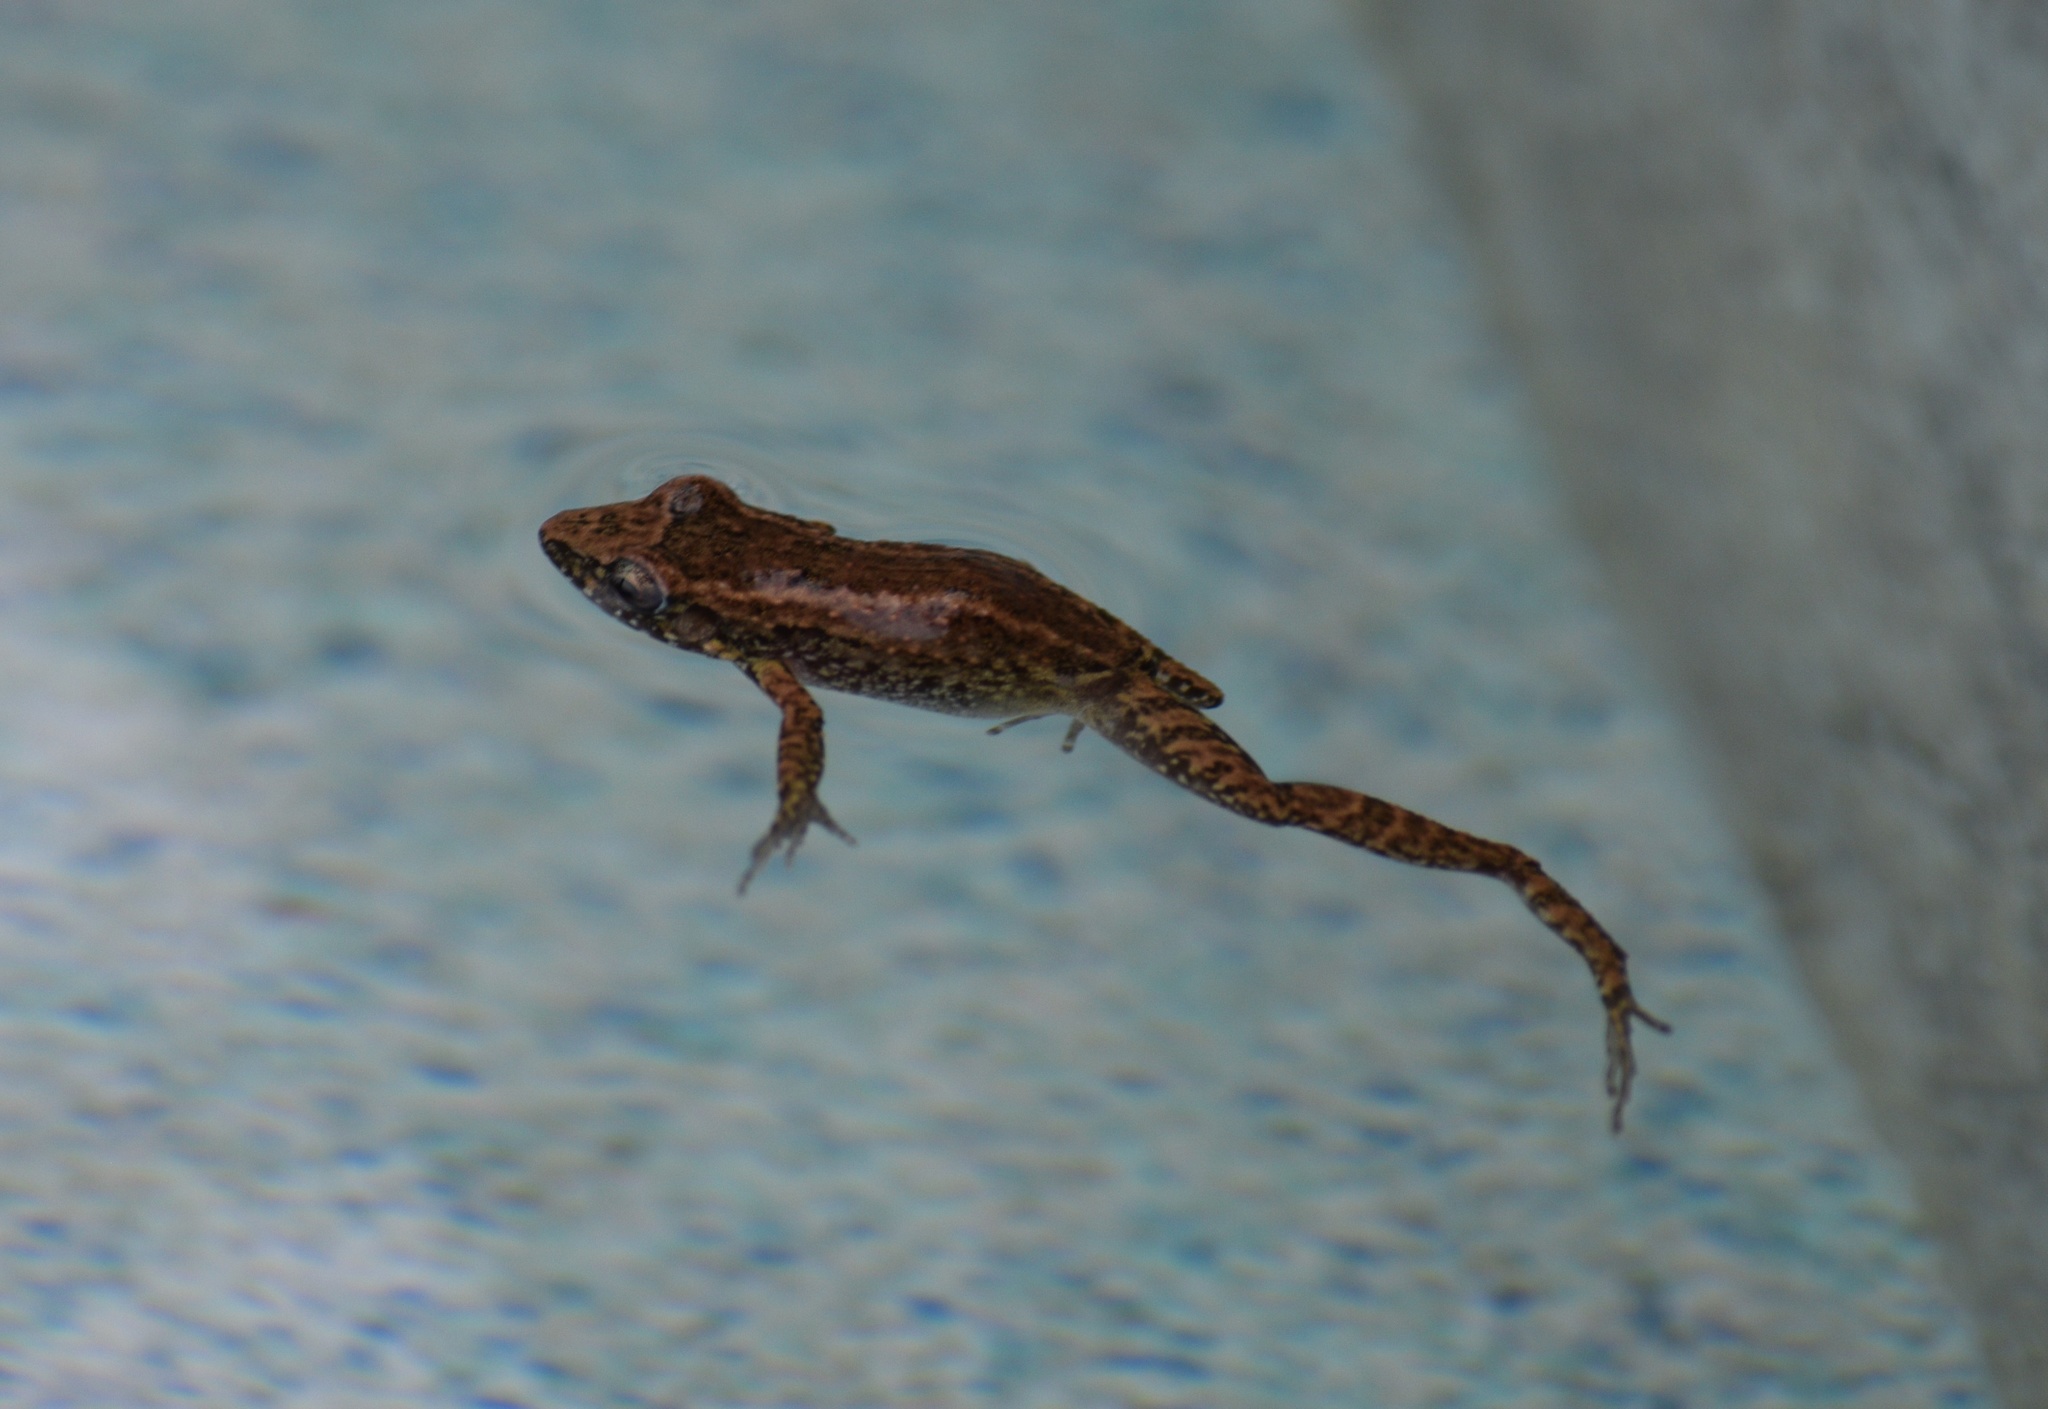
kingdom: Animalia
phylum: Chordata
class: Amphibia
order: Anura
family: Eleutherodactylidae
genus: Eleutherodactylus
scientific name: Eleutherodactylus planirostris
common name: Greenhouse frog
